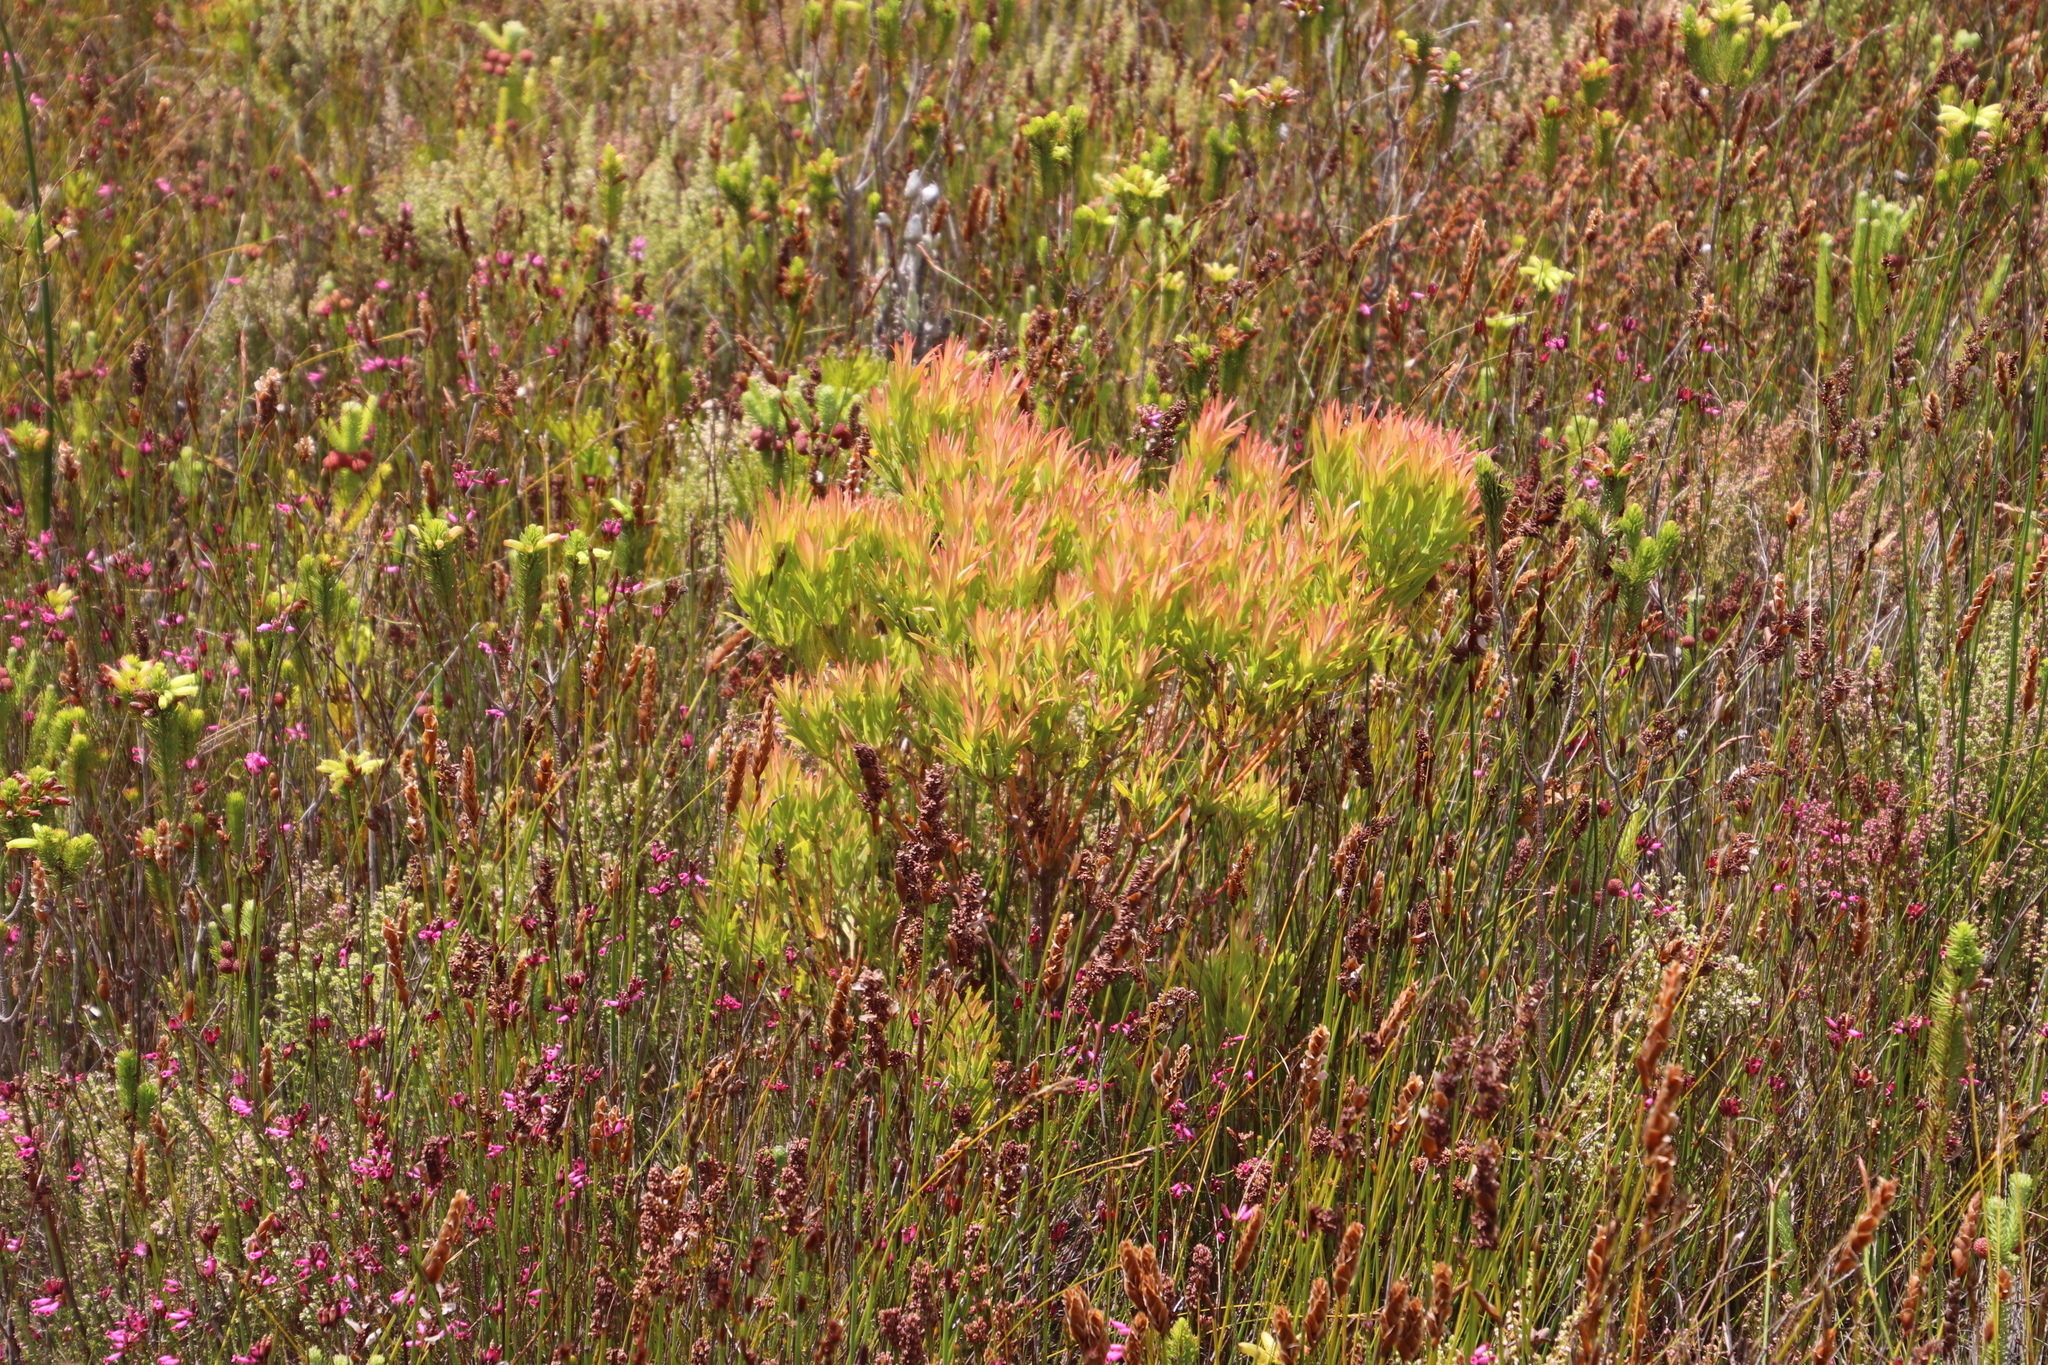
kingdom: Plantae
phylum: Tracheophyta
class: Magnoliopsida
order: Proteales
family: Proteaceae
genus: Leucadendron
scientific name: Leucadendron xanthoconus
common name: Sickle-leaf conebush
